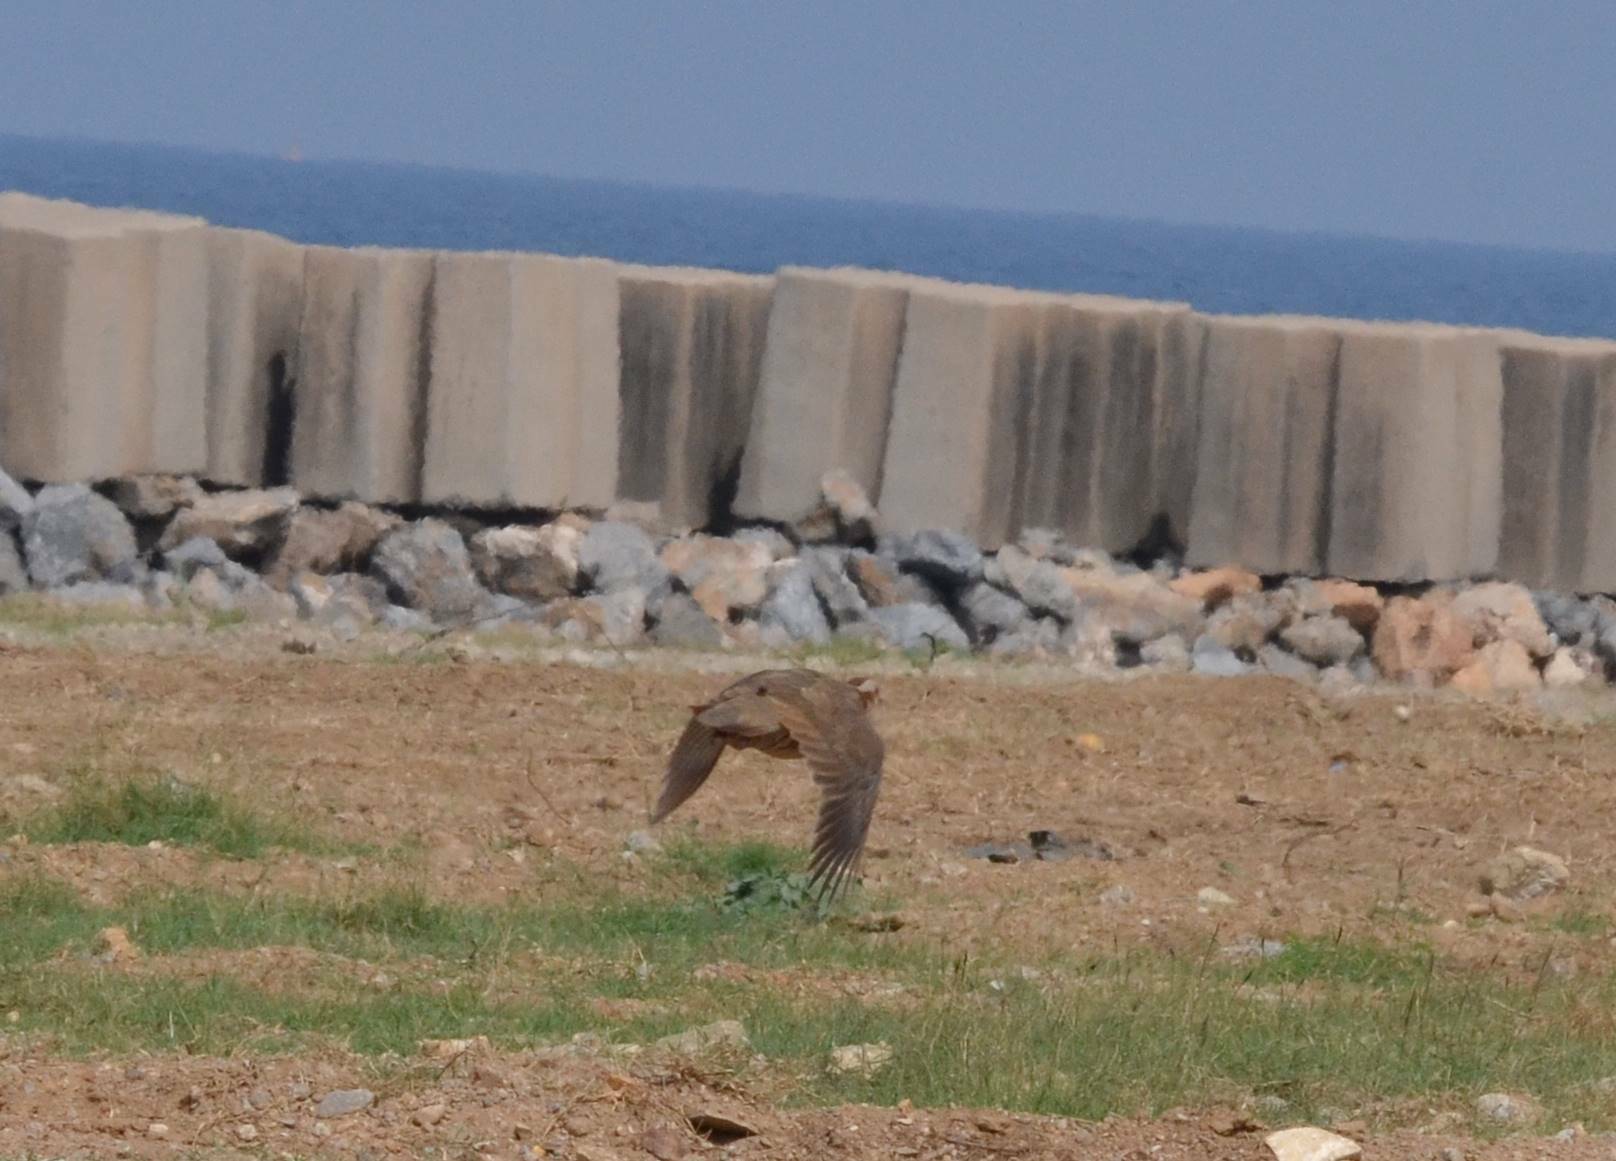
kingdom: Animalia
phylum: Chordata
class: Aves
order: Galliformes
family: Phasianidae
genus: Alectoris
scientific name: Alectoris barbara
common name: Barbary partridge
